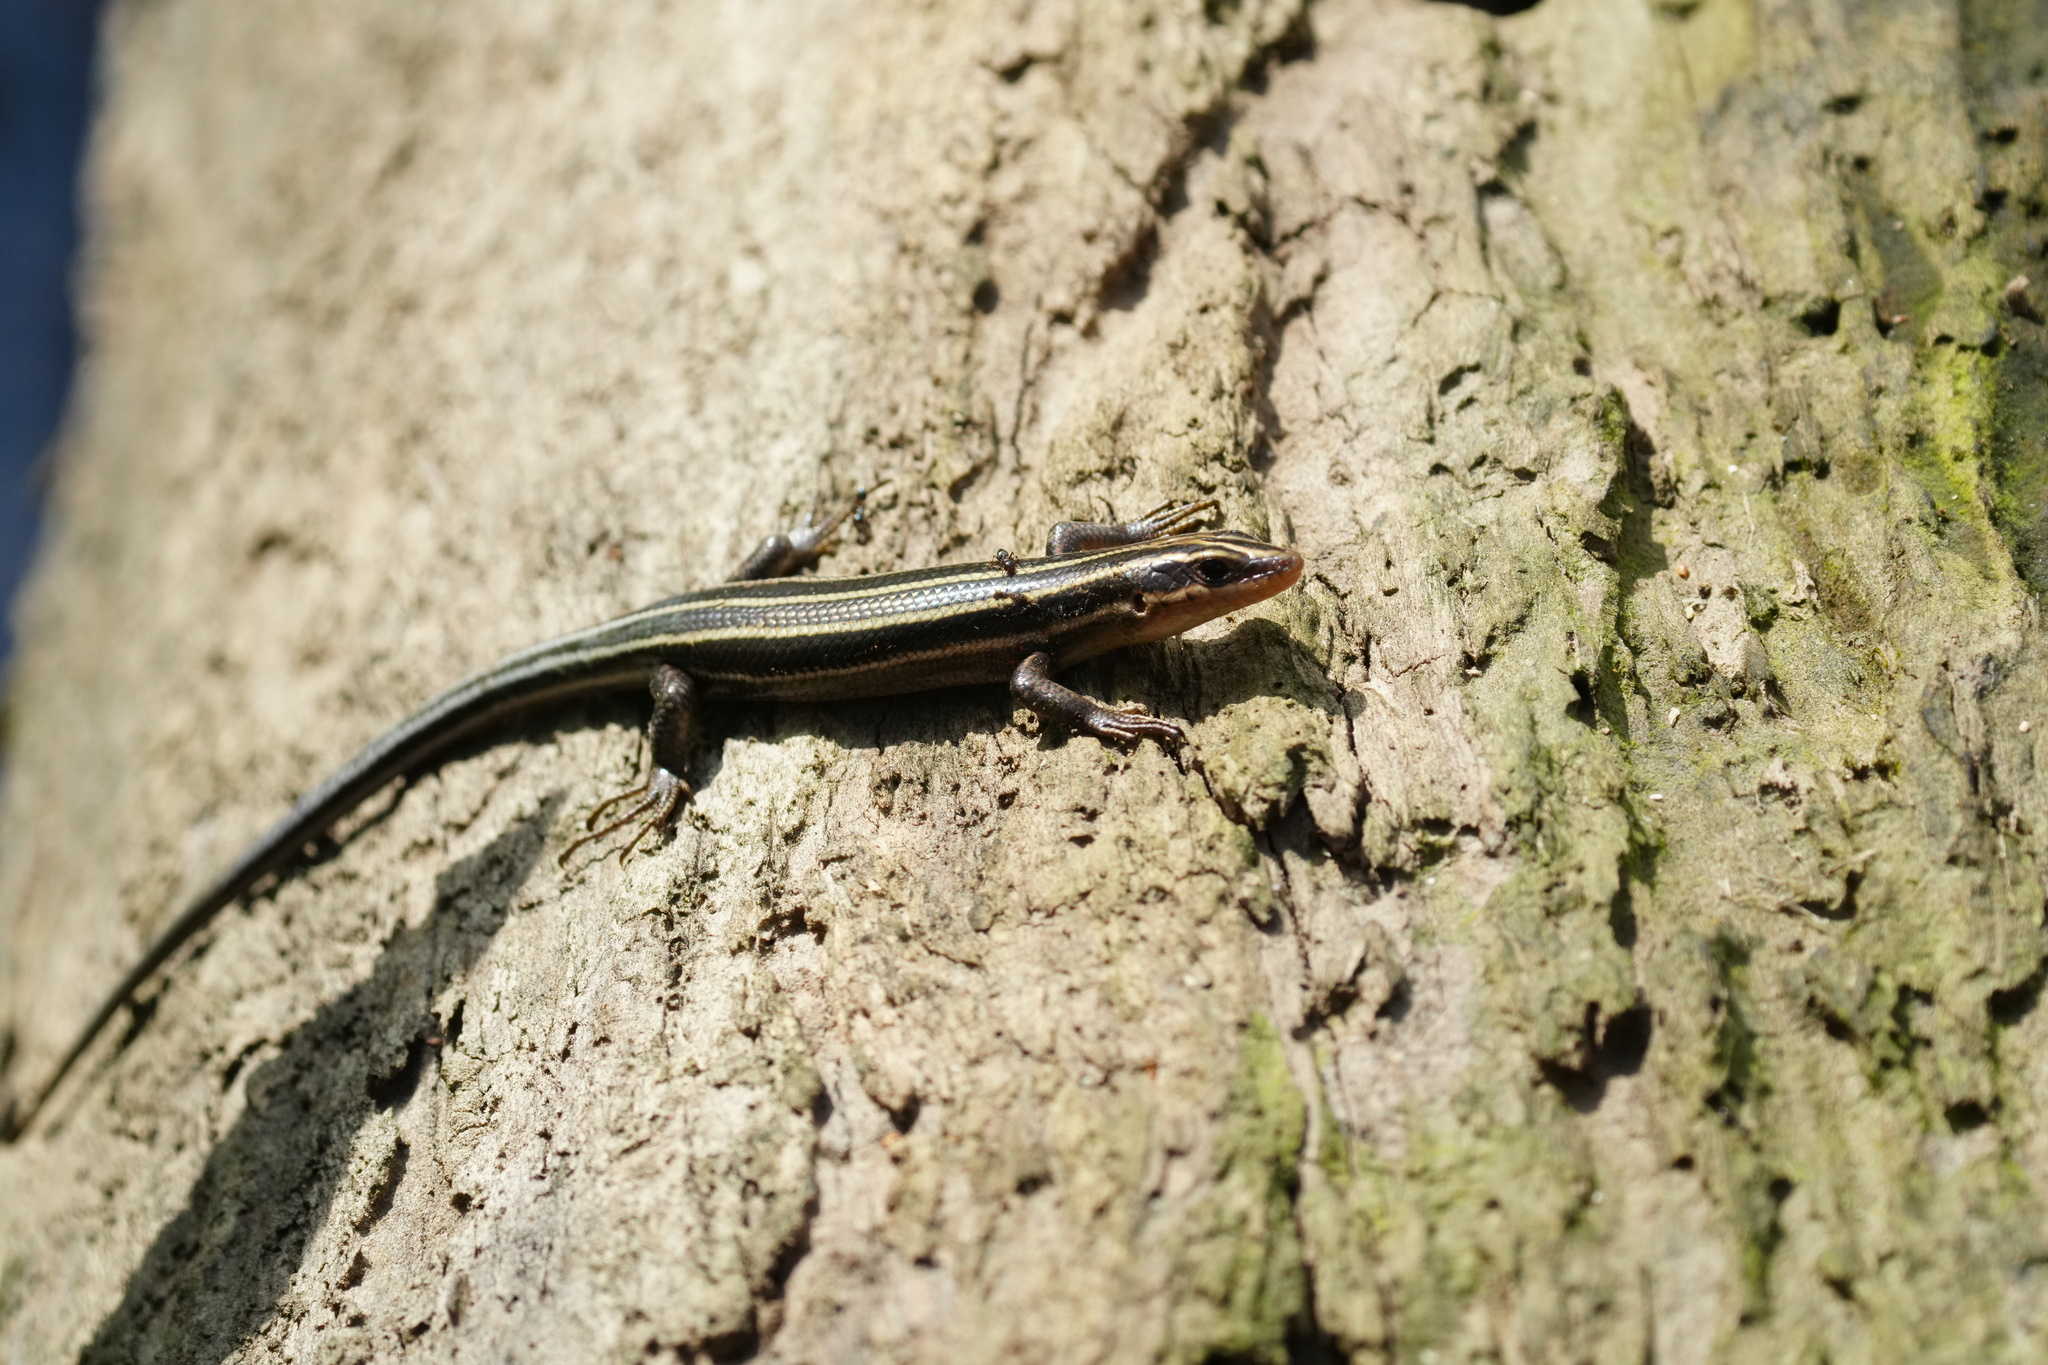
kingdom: Animalia
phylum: Chordata
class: Squamata
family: Scincidae
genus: Plestiodon
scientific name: Plestiodon fasciatus
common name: Five-lined skink
